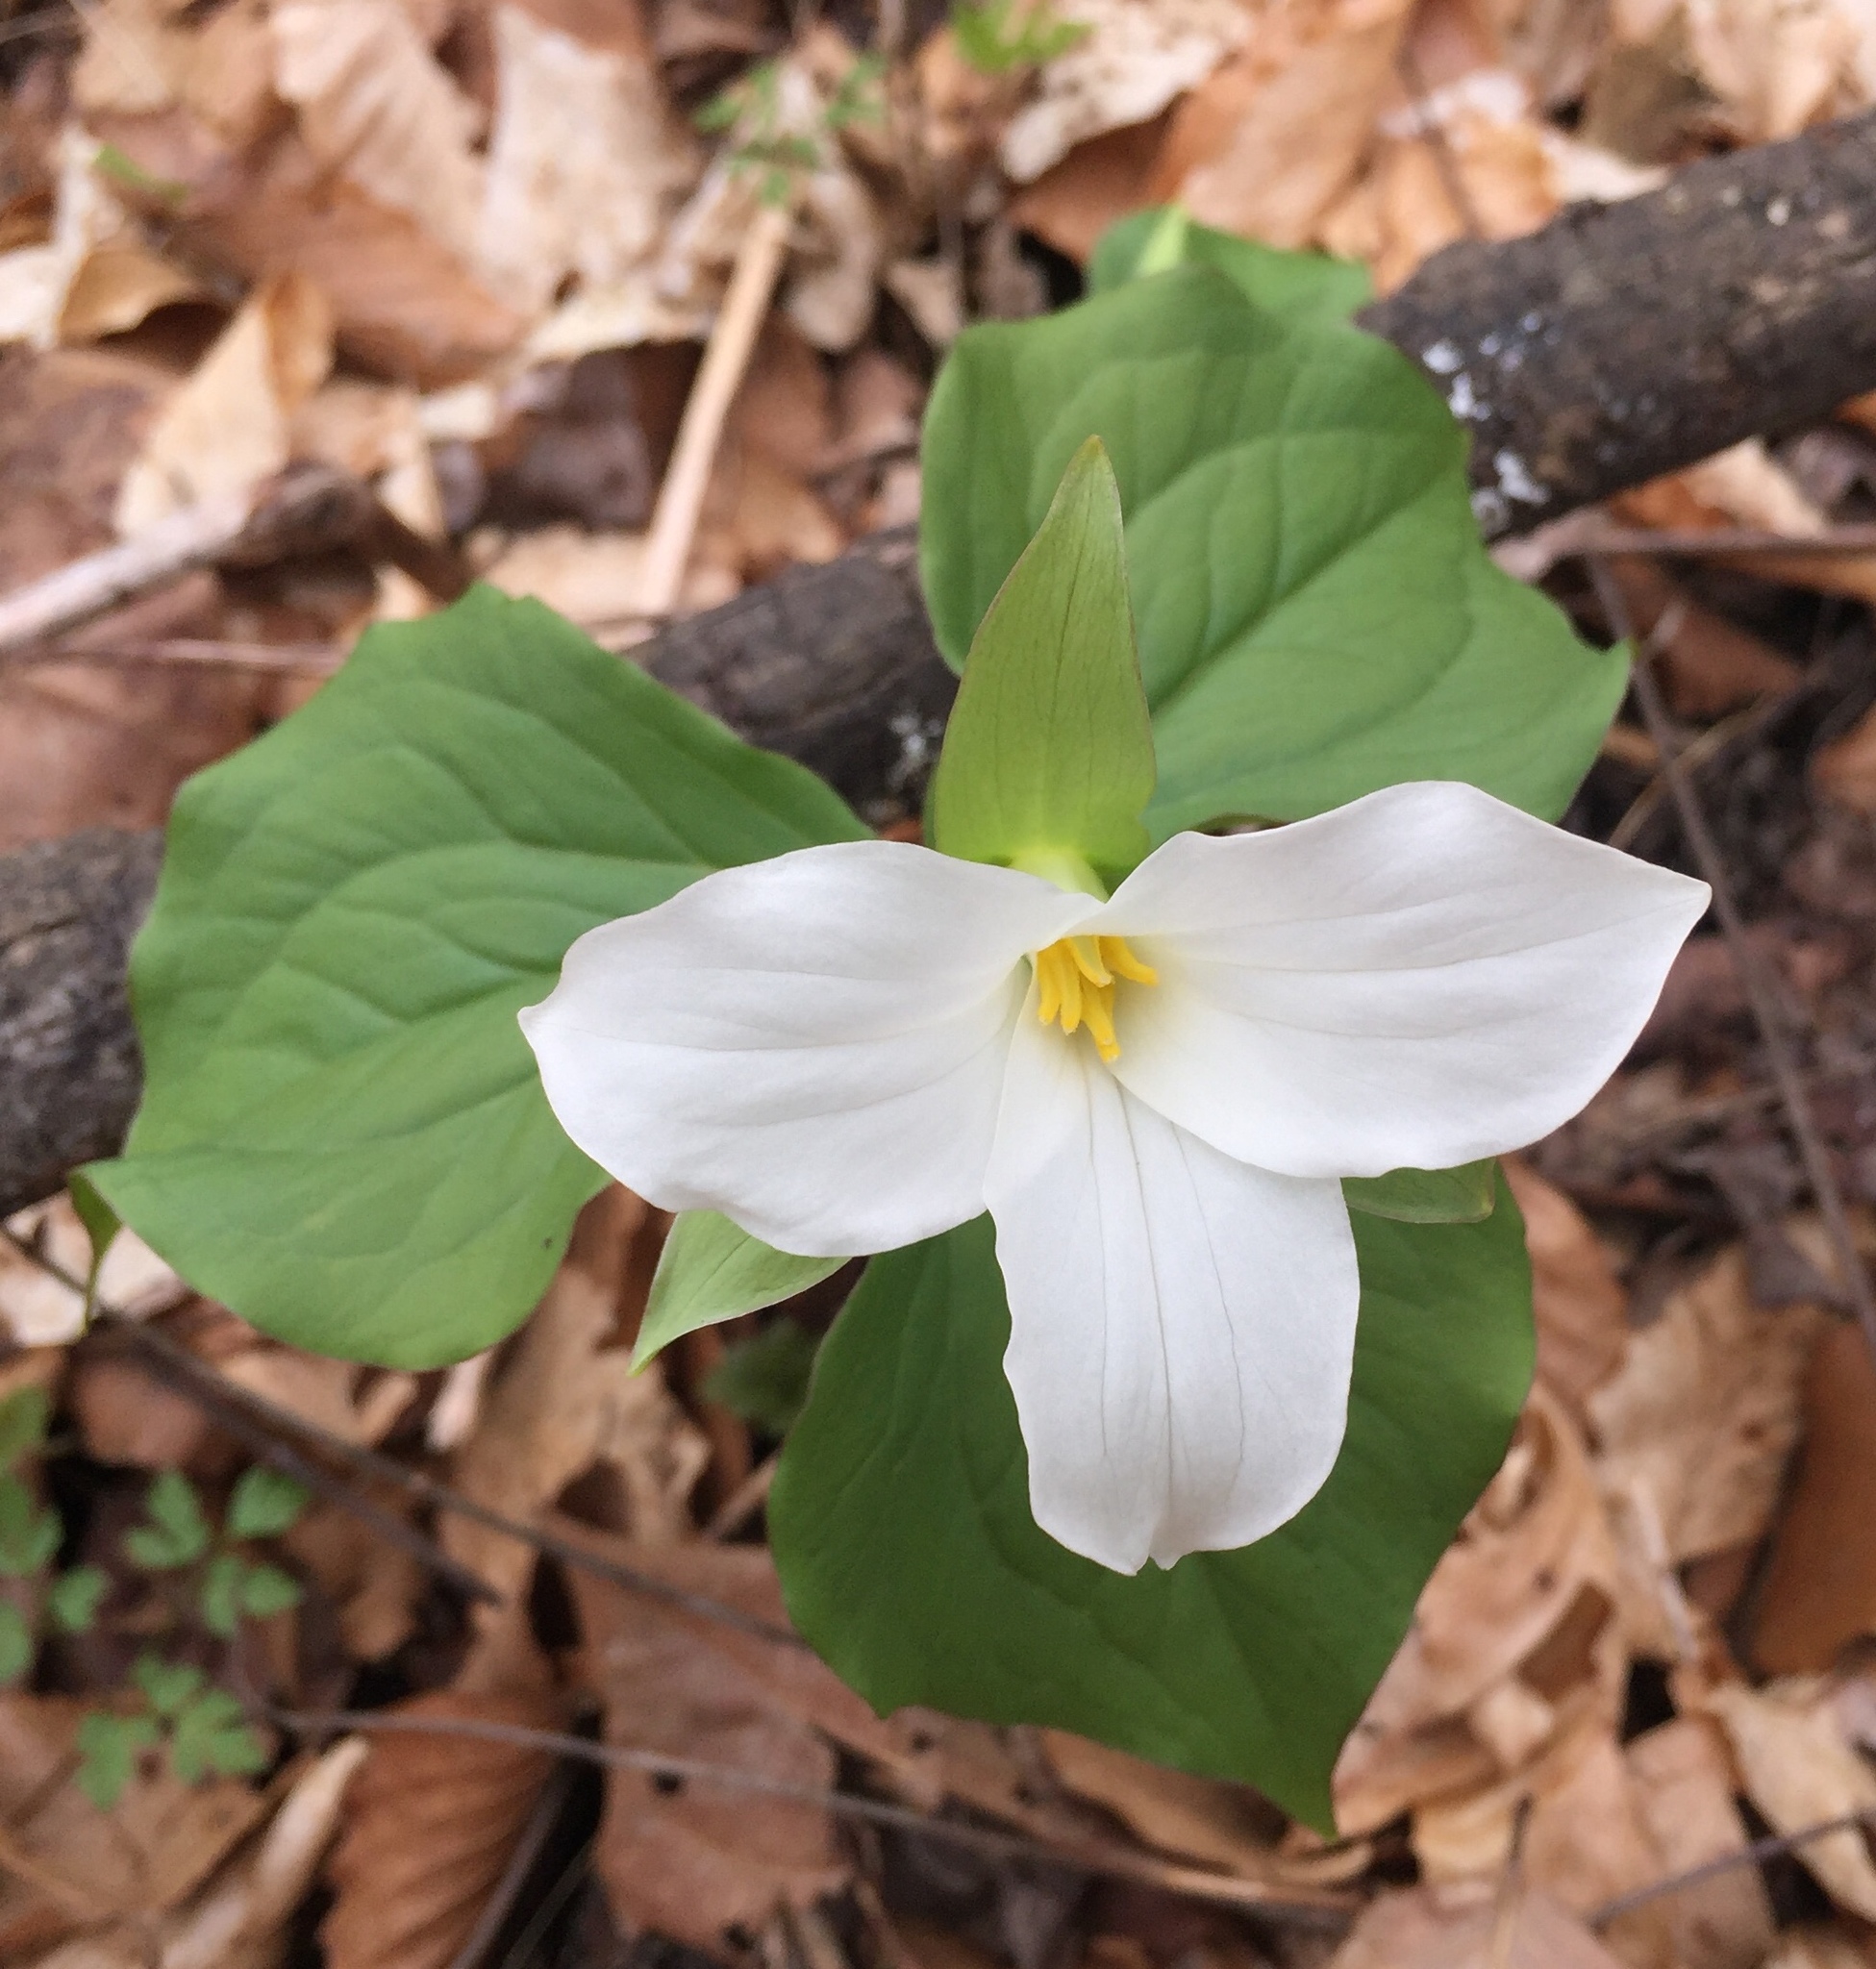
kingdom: Plantae
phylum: Tracheophyta
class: Liliopsida
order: Liliales
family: Melanthiaceae
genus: Trillium
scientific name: Trillium grandiflorum
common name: Great white trillium
